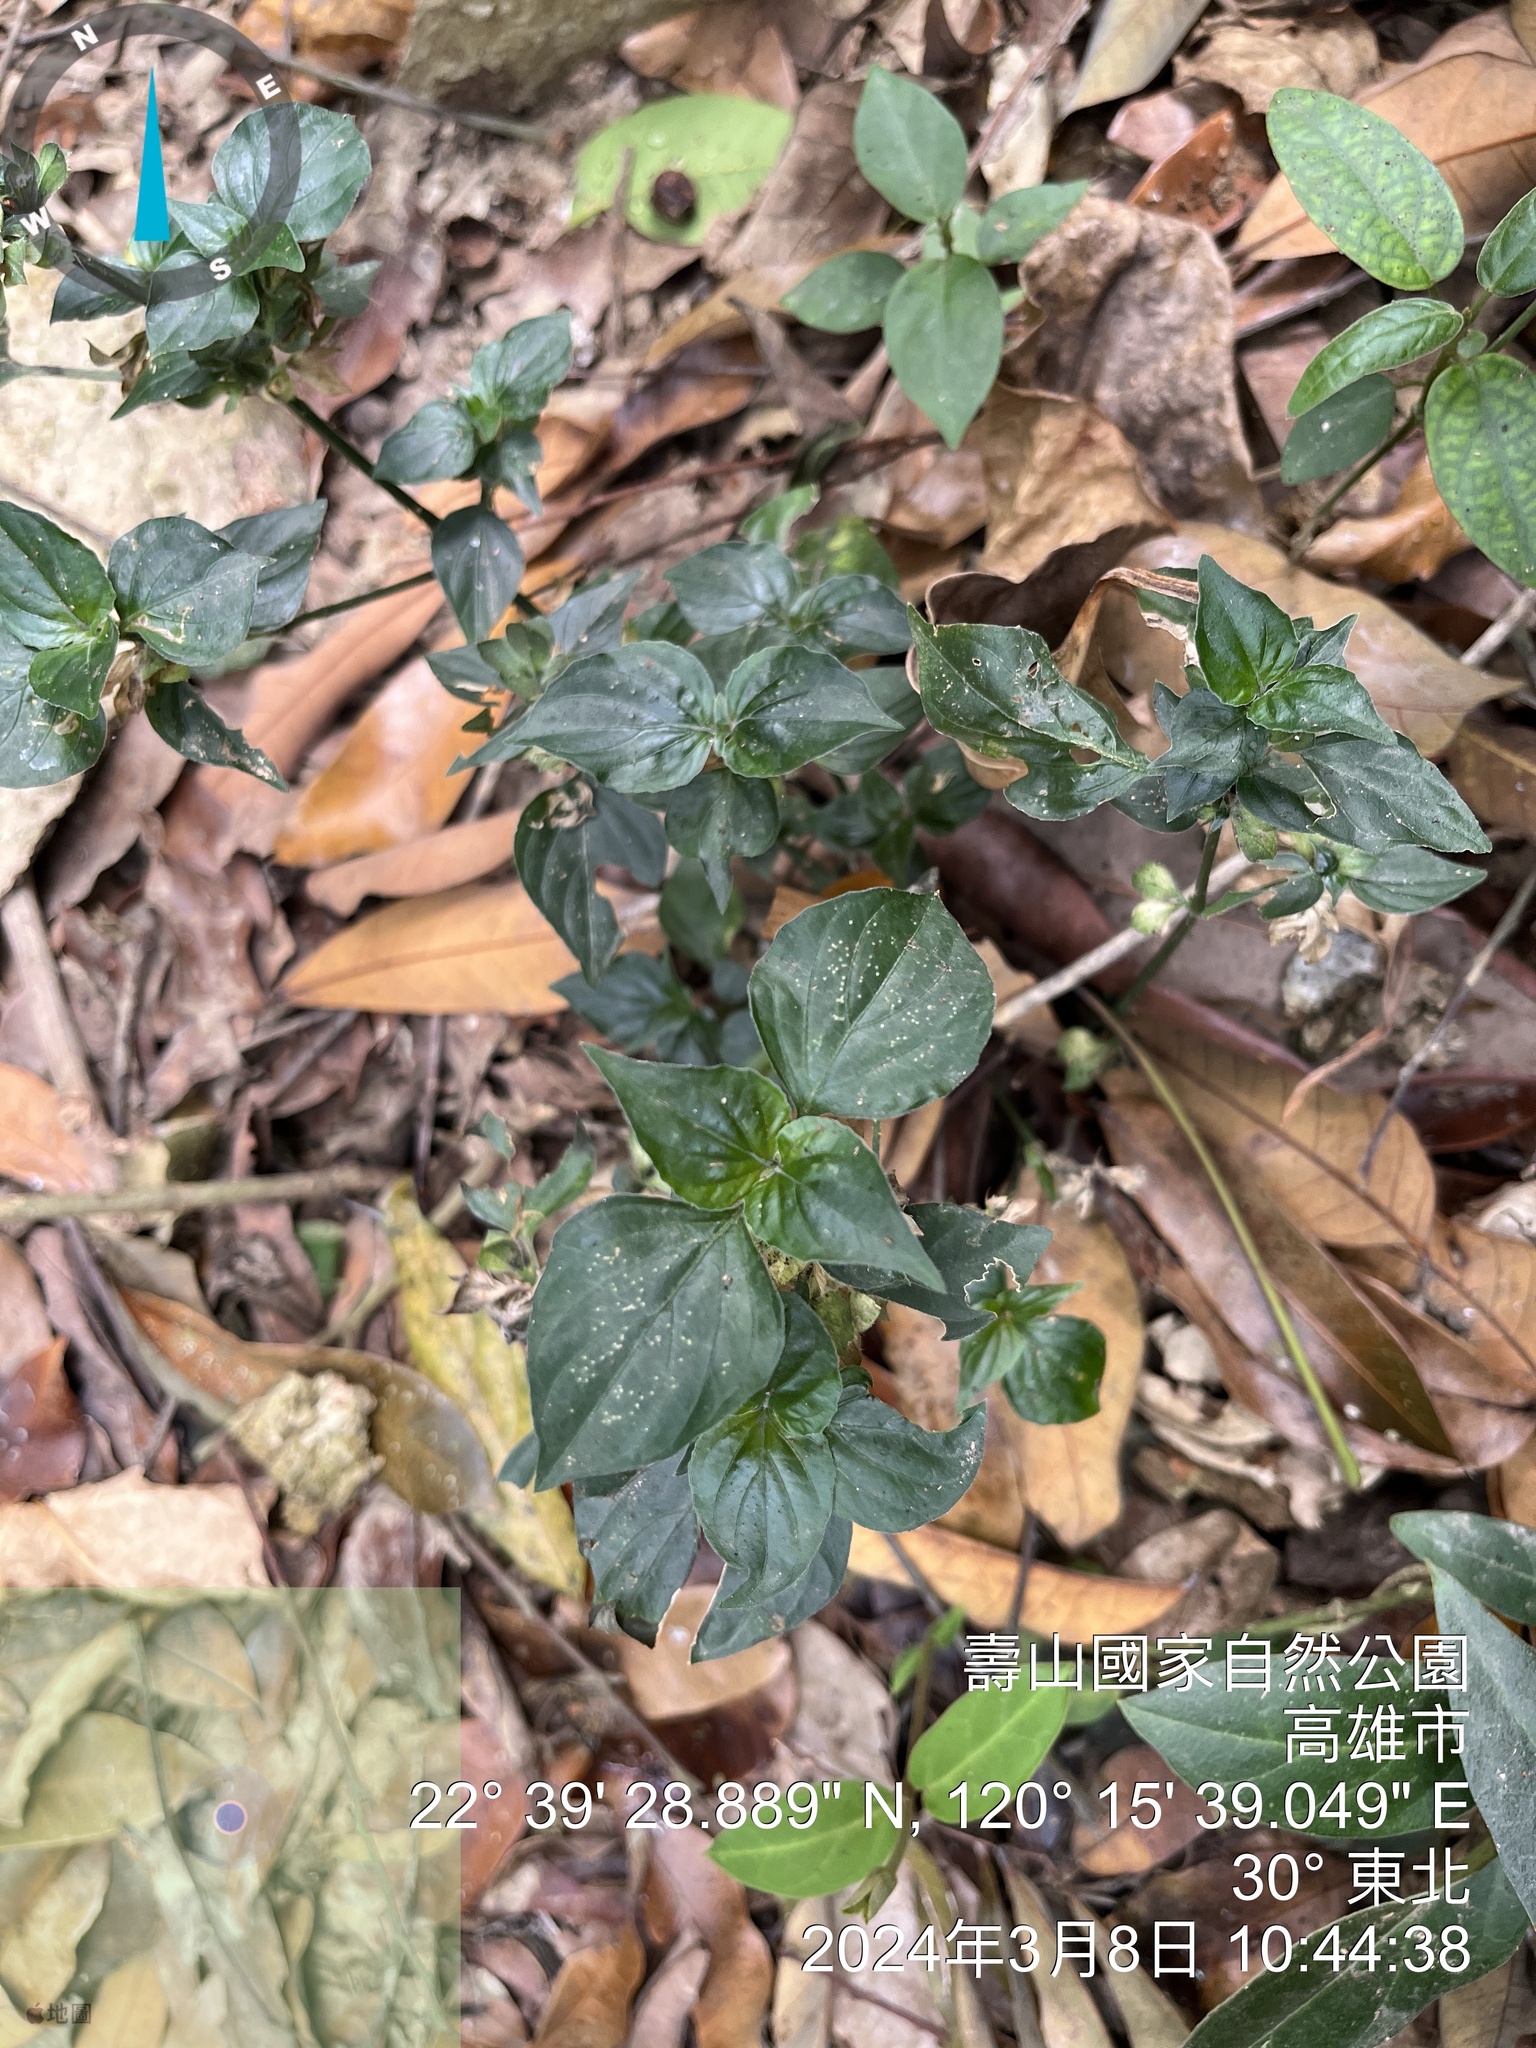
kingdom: Plantae
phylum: Tracheophyta
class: Magnoliopsida
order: Asterales
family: Asteraceae
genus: Synedrella
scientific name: Synedrella nodiflora
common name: Nodeweed
